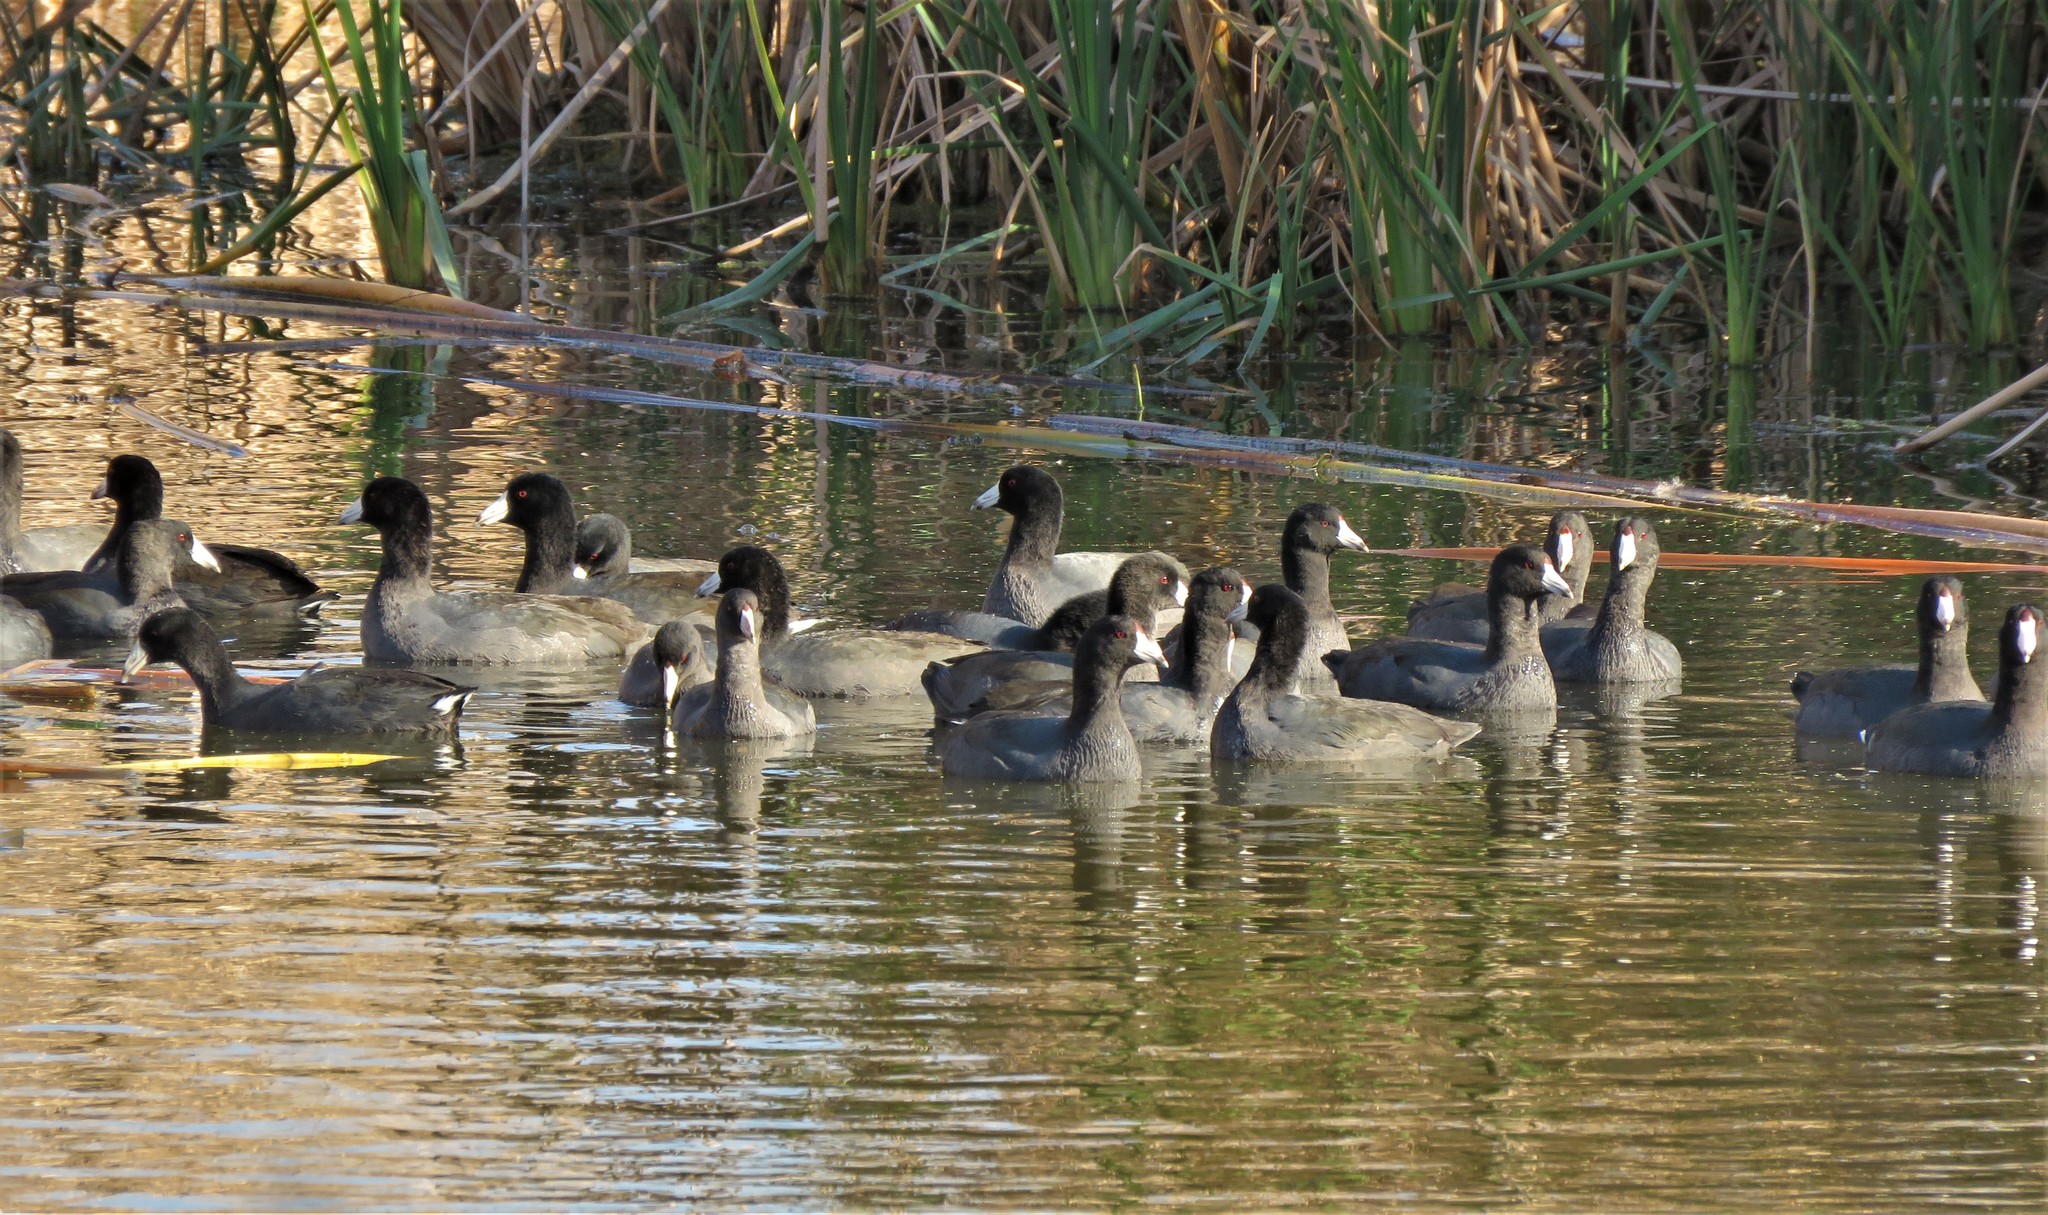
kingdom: Animalia
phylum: Chordata
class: Aves
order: Gruiformes
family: Rallidae
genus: Fulica
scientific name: Fulica americana
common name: American coot
